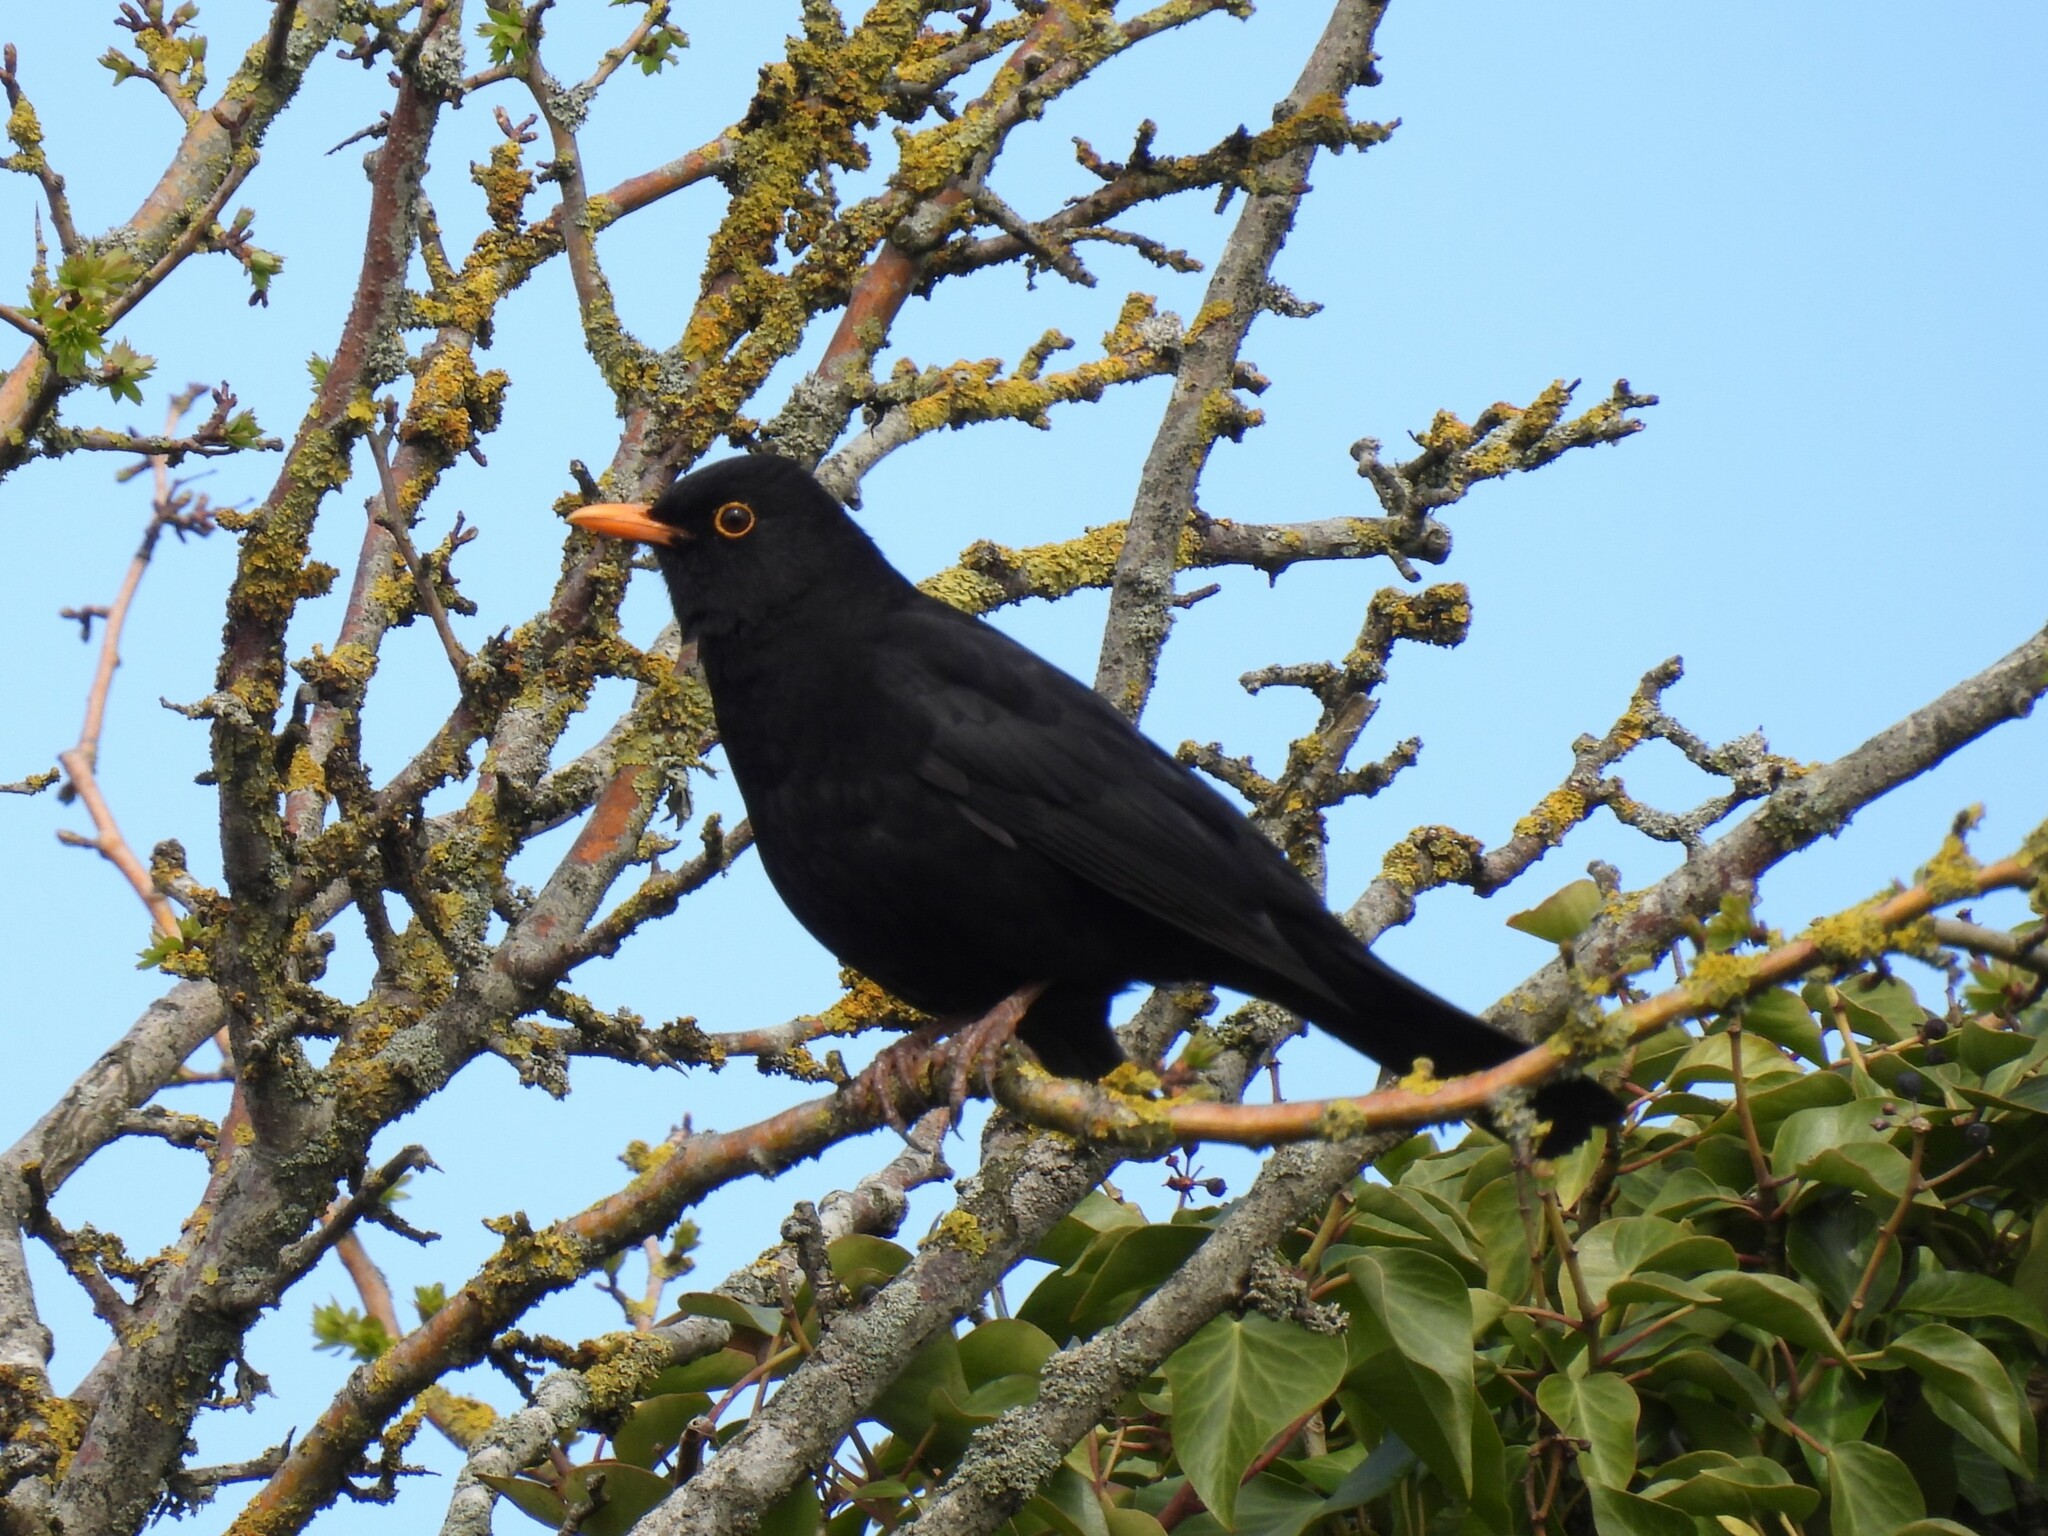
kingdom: Animalia
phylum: Chordata
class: Aves
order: Passeriformes
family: Turdidae
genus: Turdus
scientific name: Turdus merula
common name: Common blackbird
